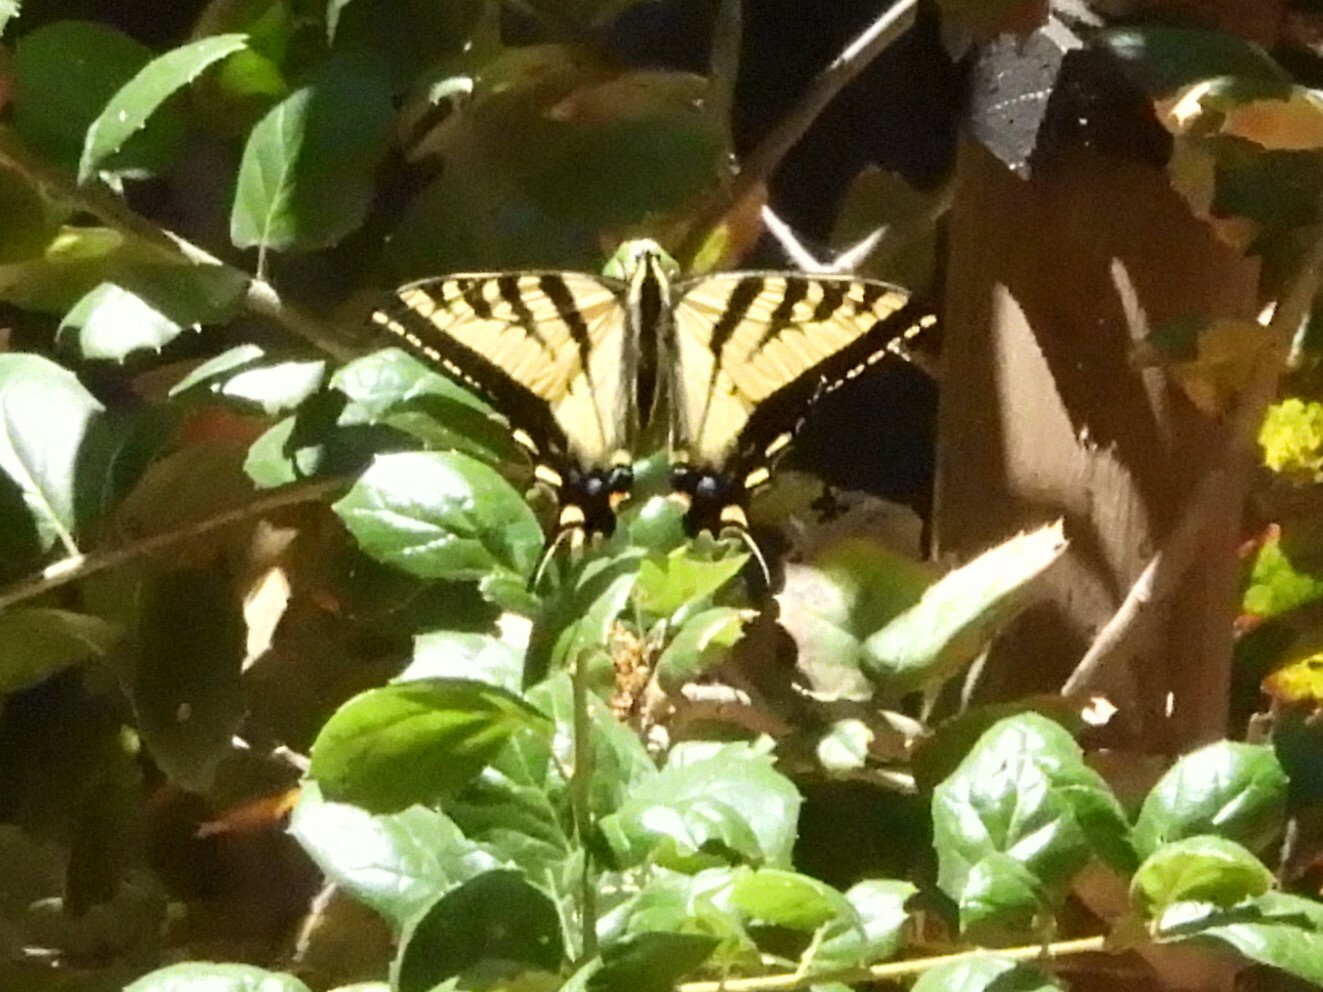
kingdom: Animalia
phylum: Arthropoda
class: Insecta
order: Lepidoptera
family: Papilionidae
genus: Papilio
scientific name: Papilio rutulus
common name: Western tiger swallowtail
